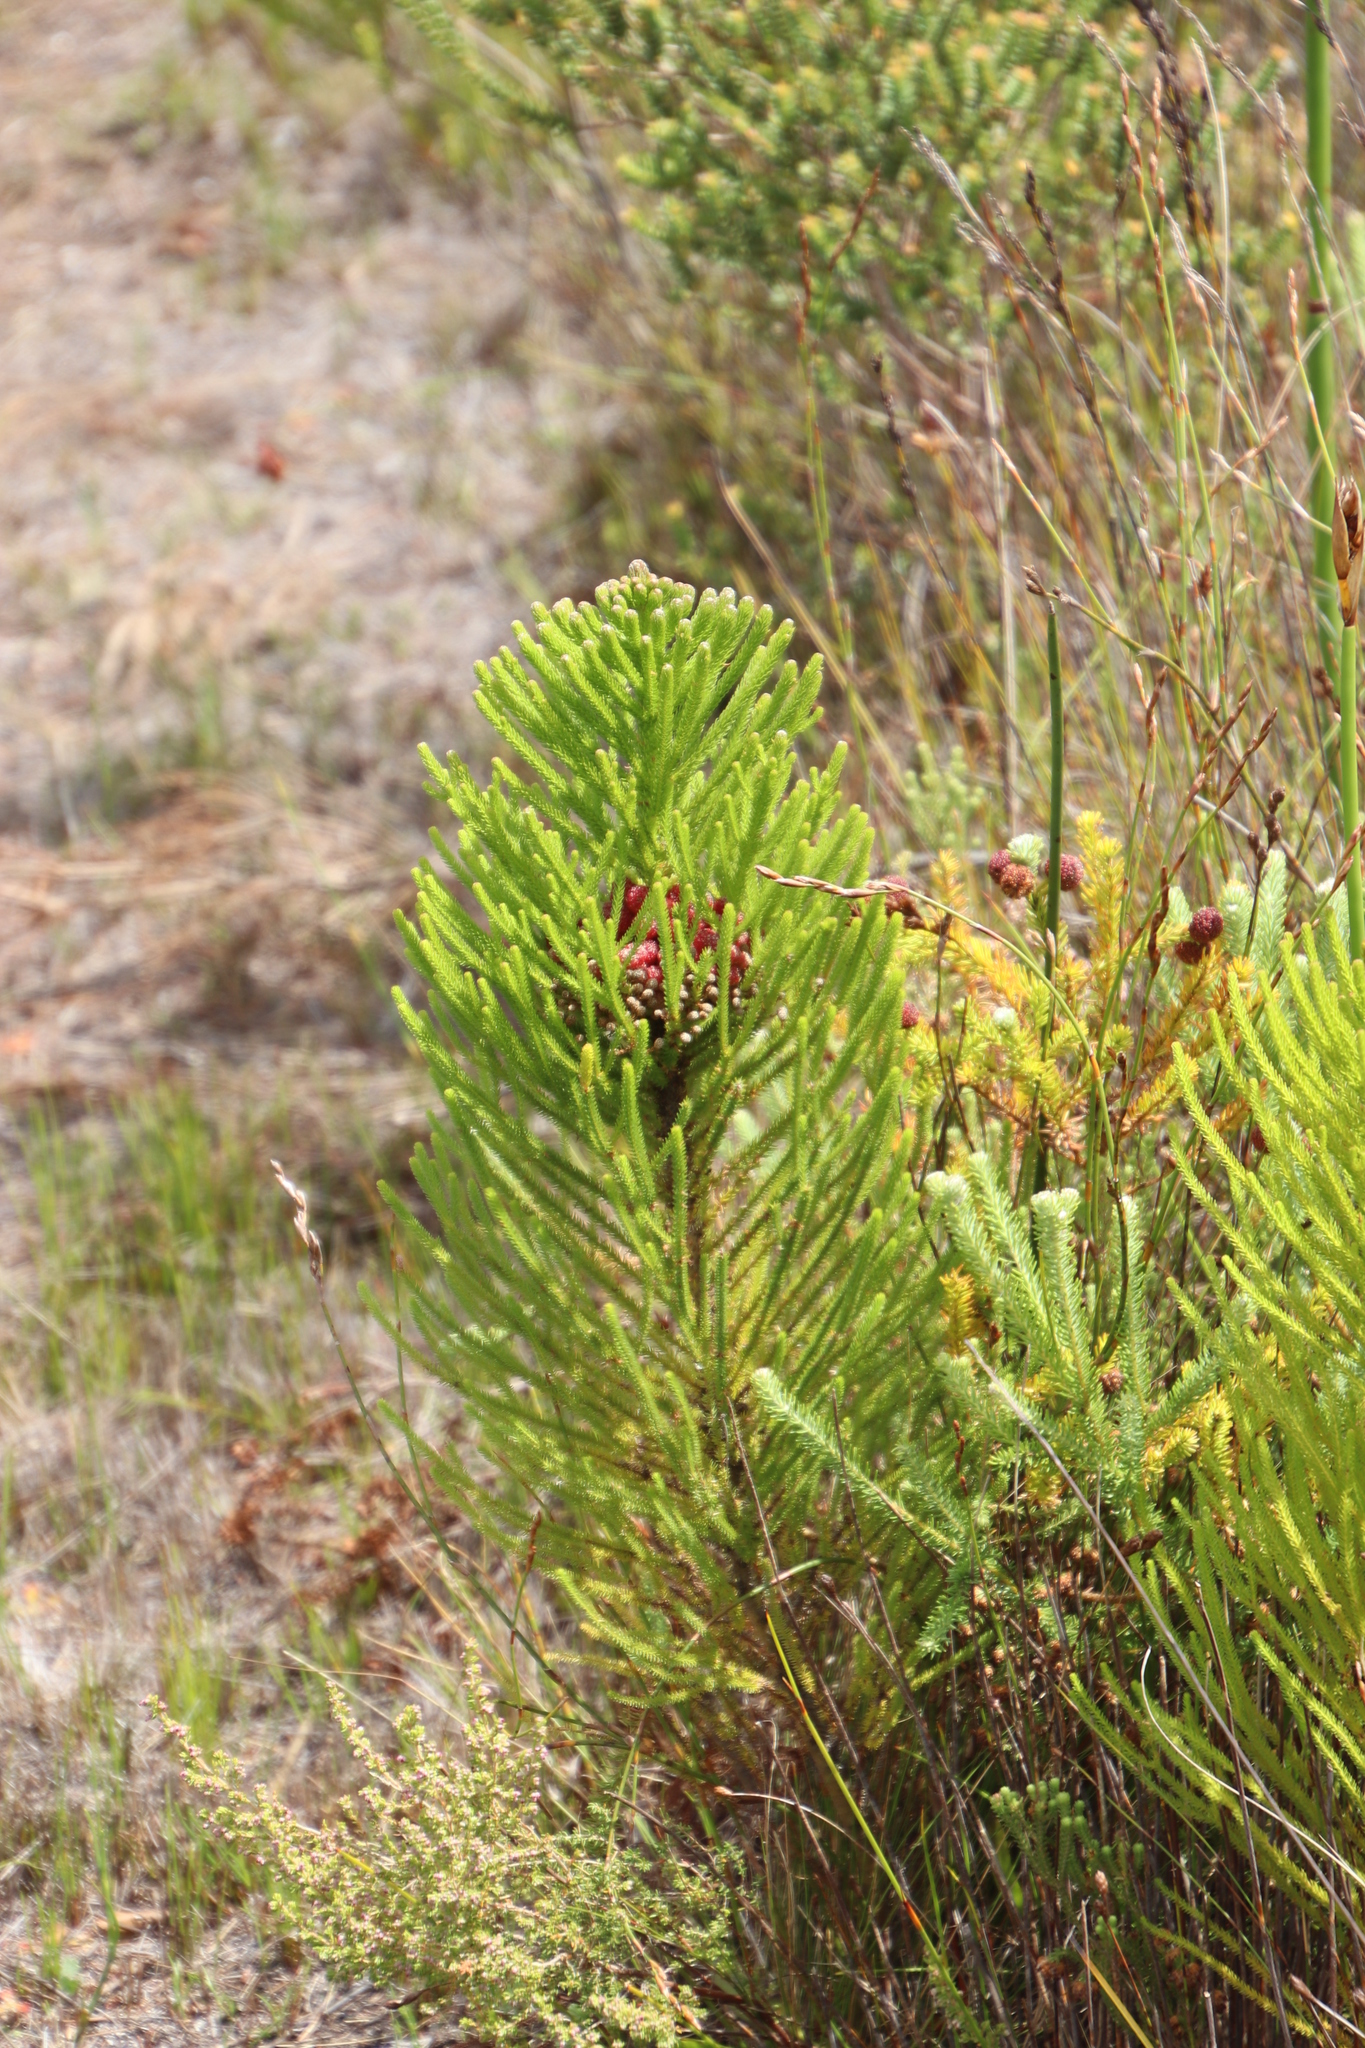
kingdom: Plantae
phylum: Tracheophyta
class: Magnoliopsida
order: Bruniales
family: Bruniaceae
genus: Berzelia
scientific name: Berzelia alopecurioides
